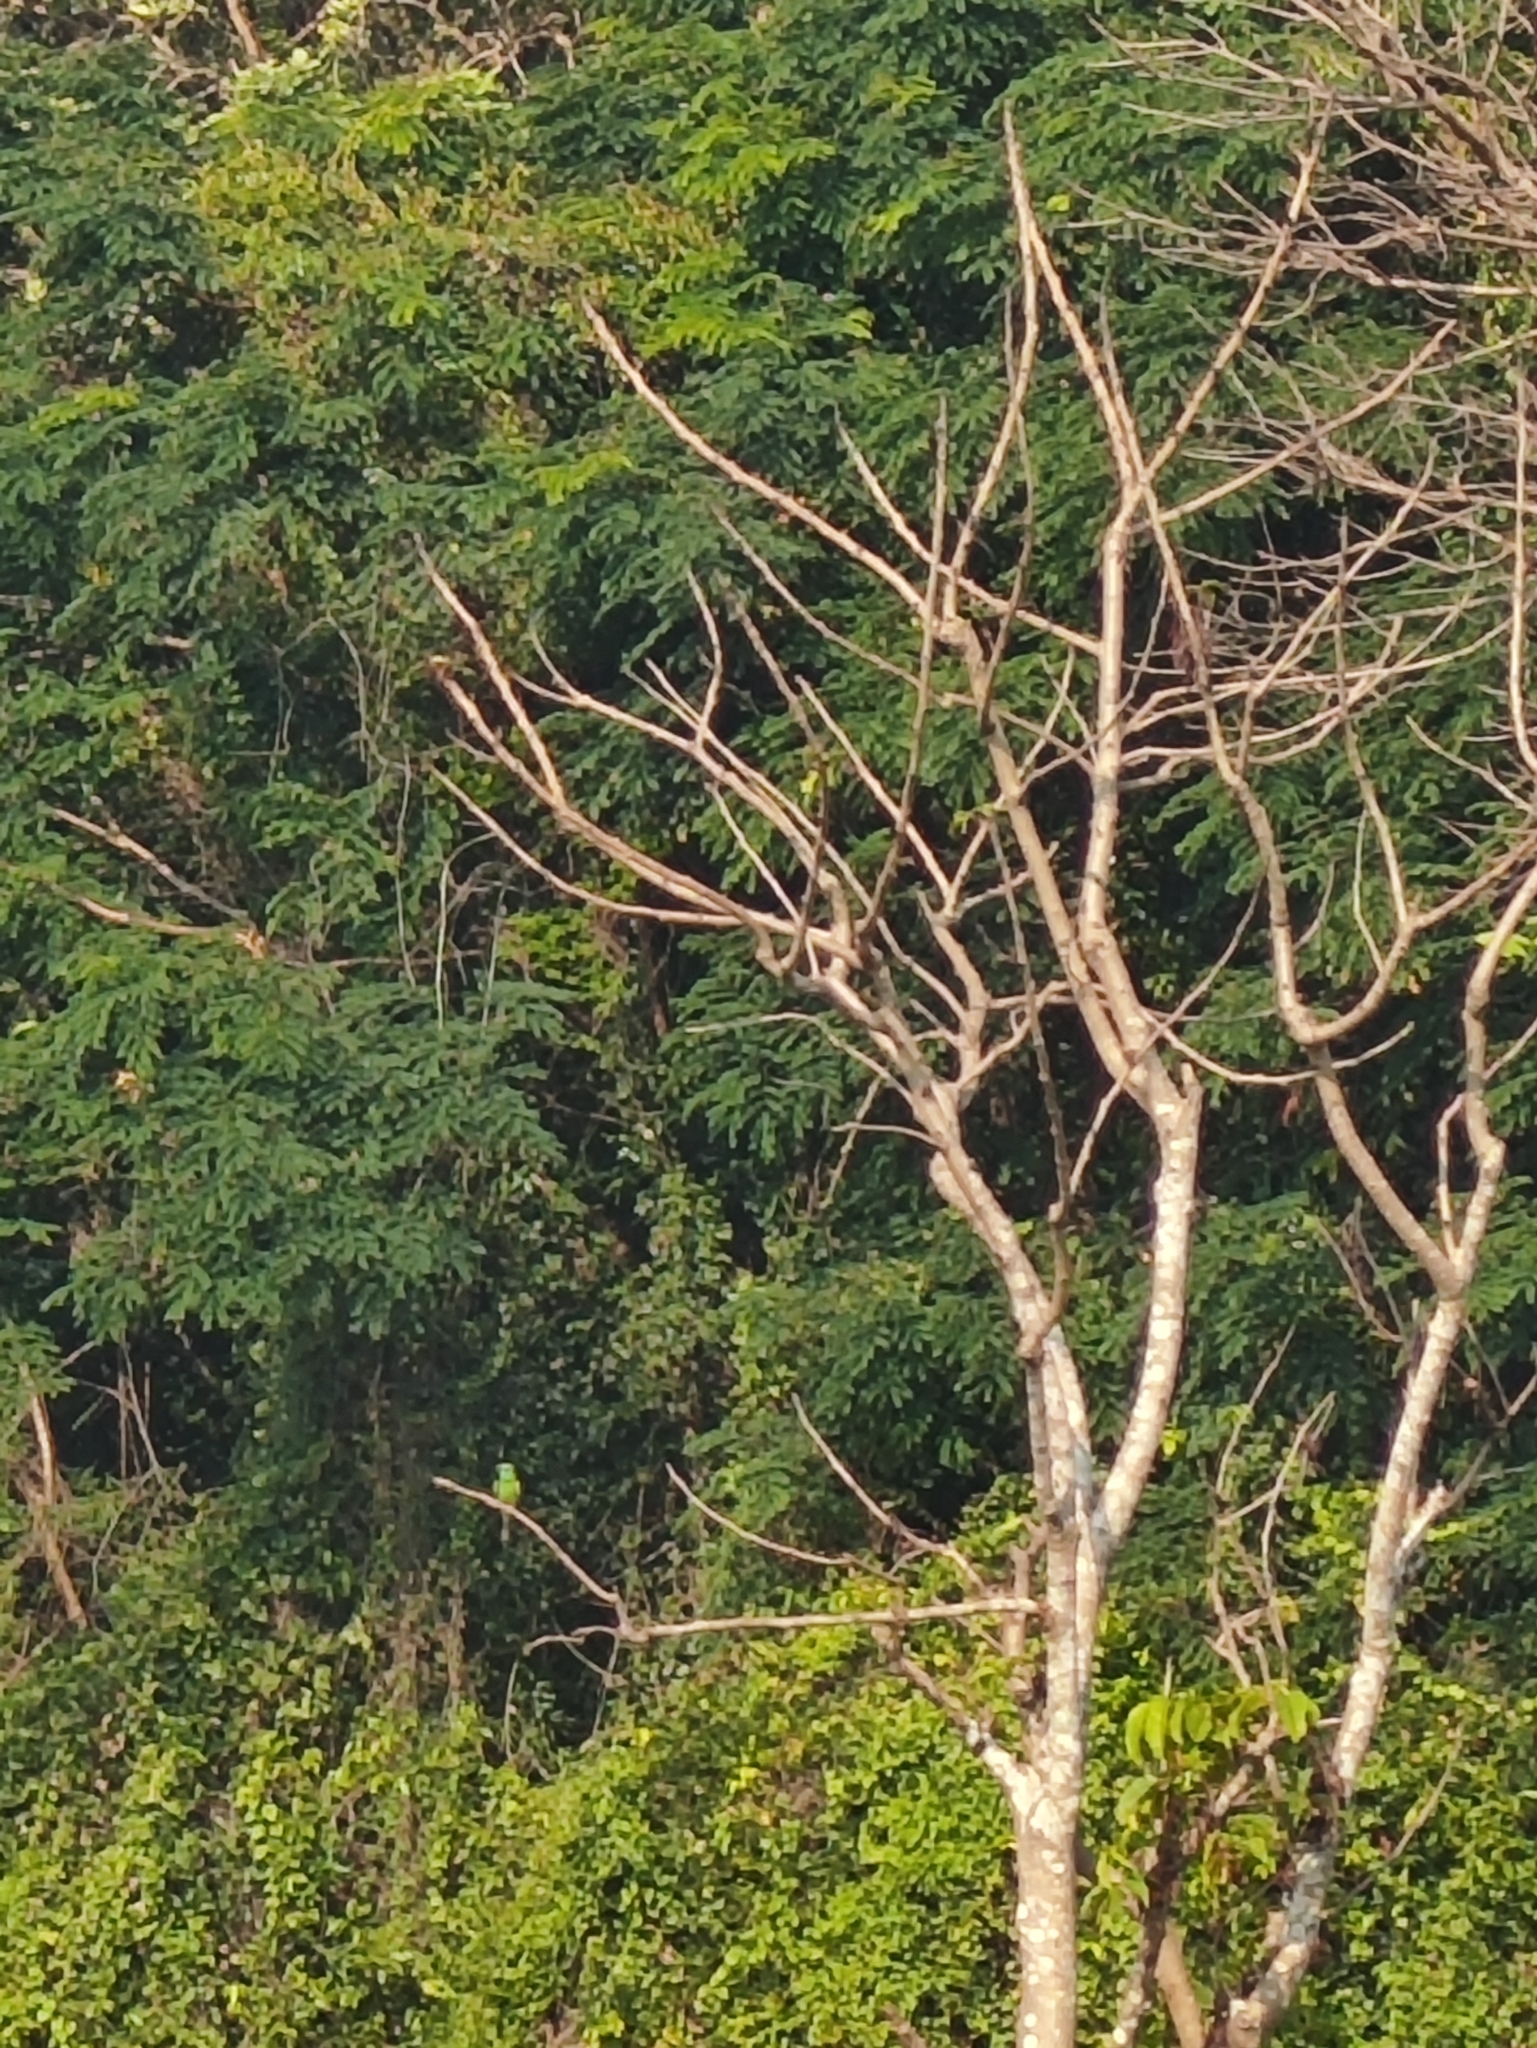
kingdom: Animalia
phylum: Chordata
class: Aves
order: Coraciiformes
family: Meropidae
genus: Merops
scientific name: Merops orientalis
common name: Green bee-eater
